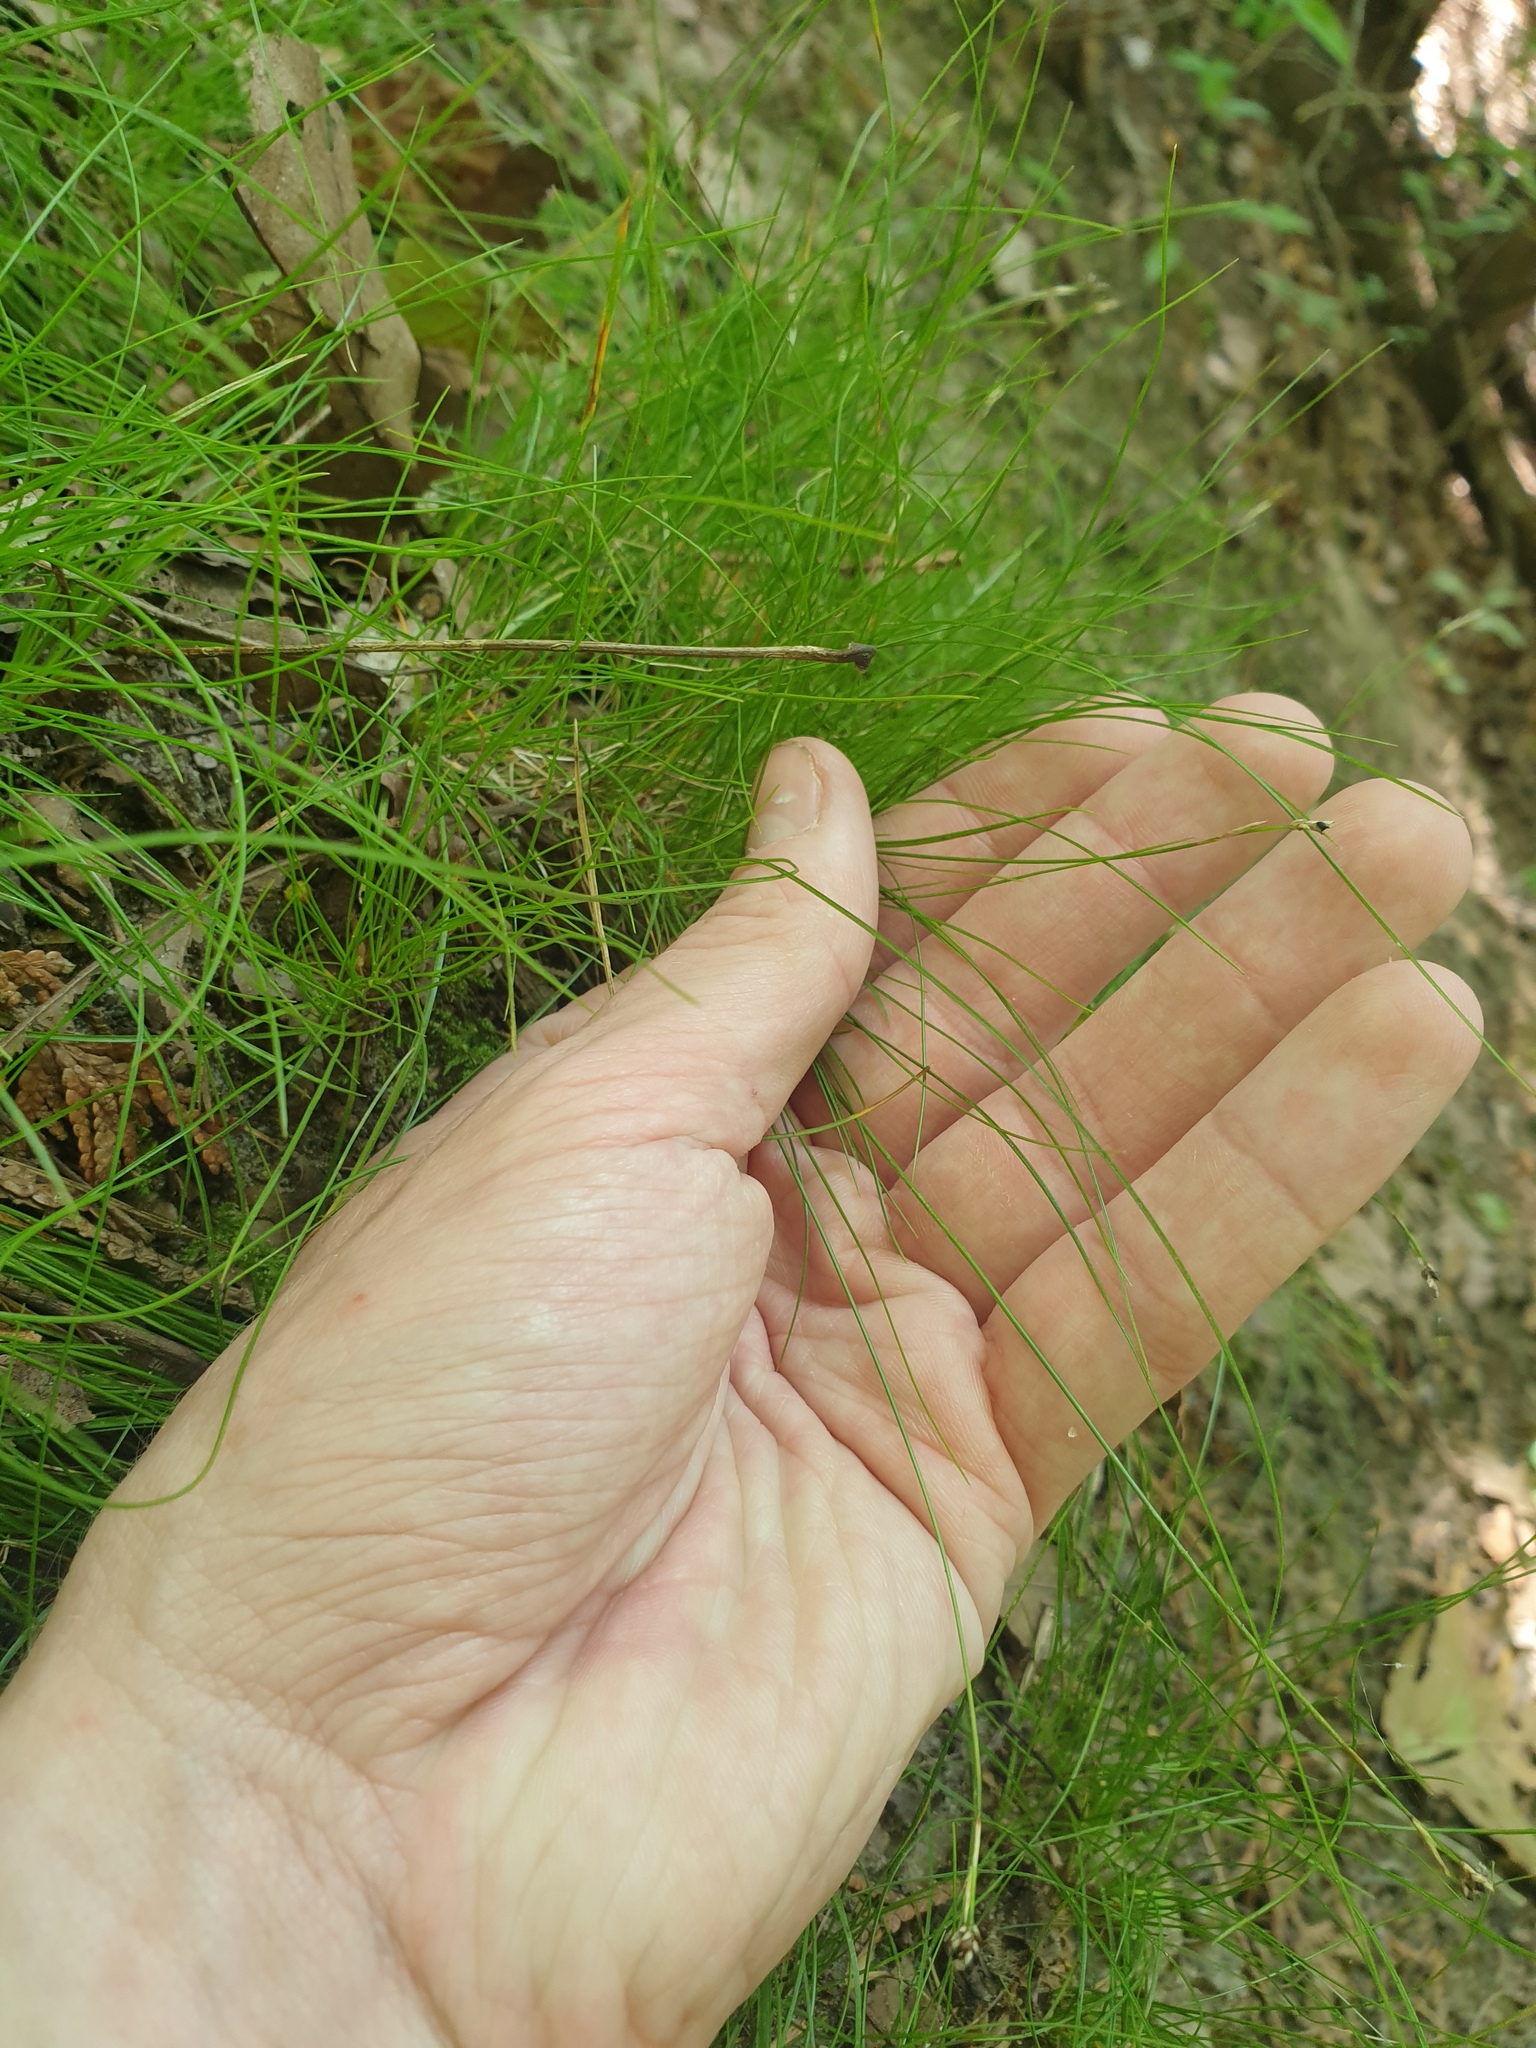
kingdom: Plantae
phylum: Tracheophyta
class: Liliopsida
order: Poales
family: Cyperaceae
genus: Carex
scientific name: Carex eburnea
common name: Bristle-leaved sedge
